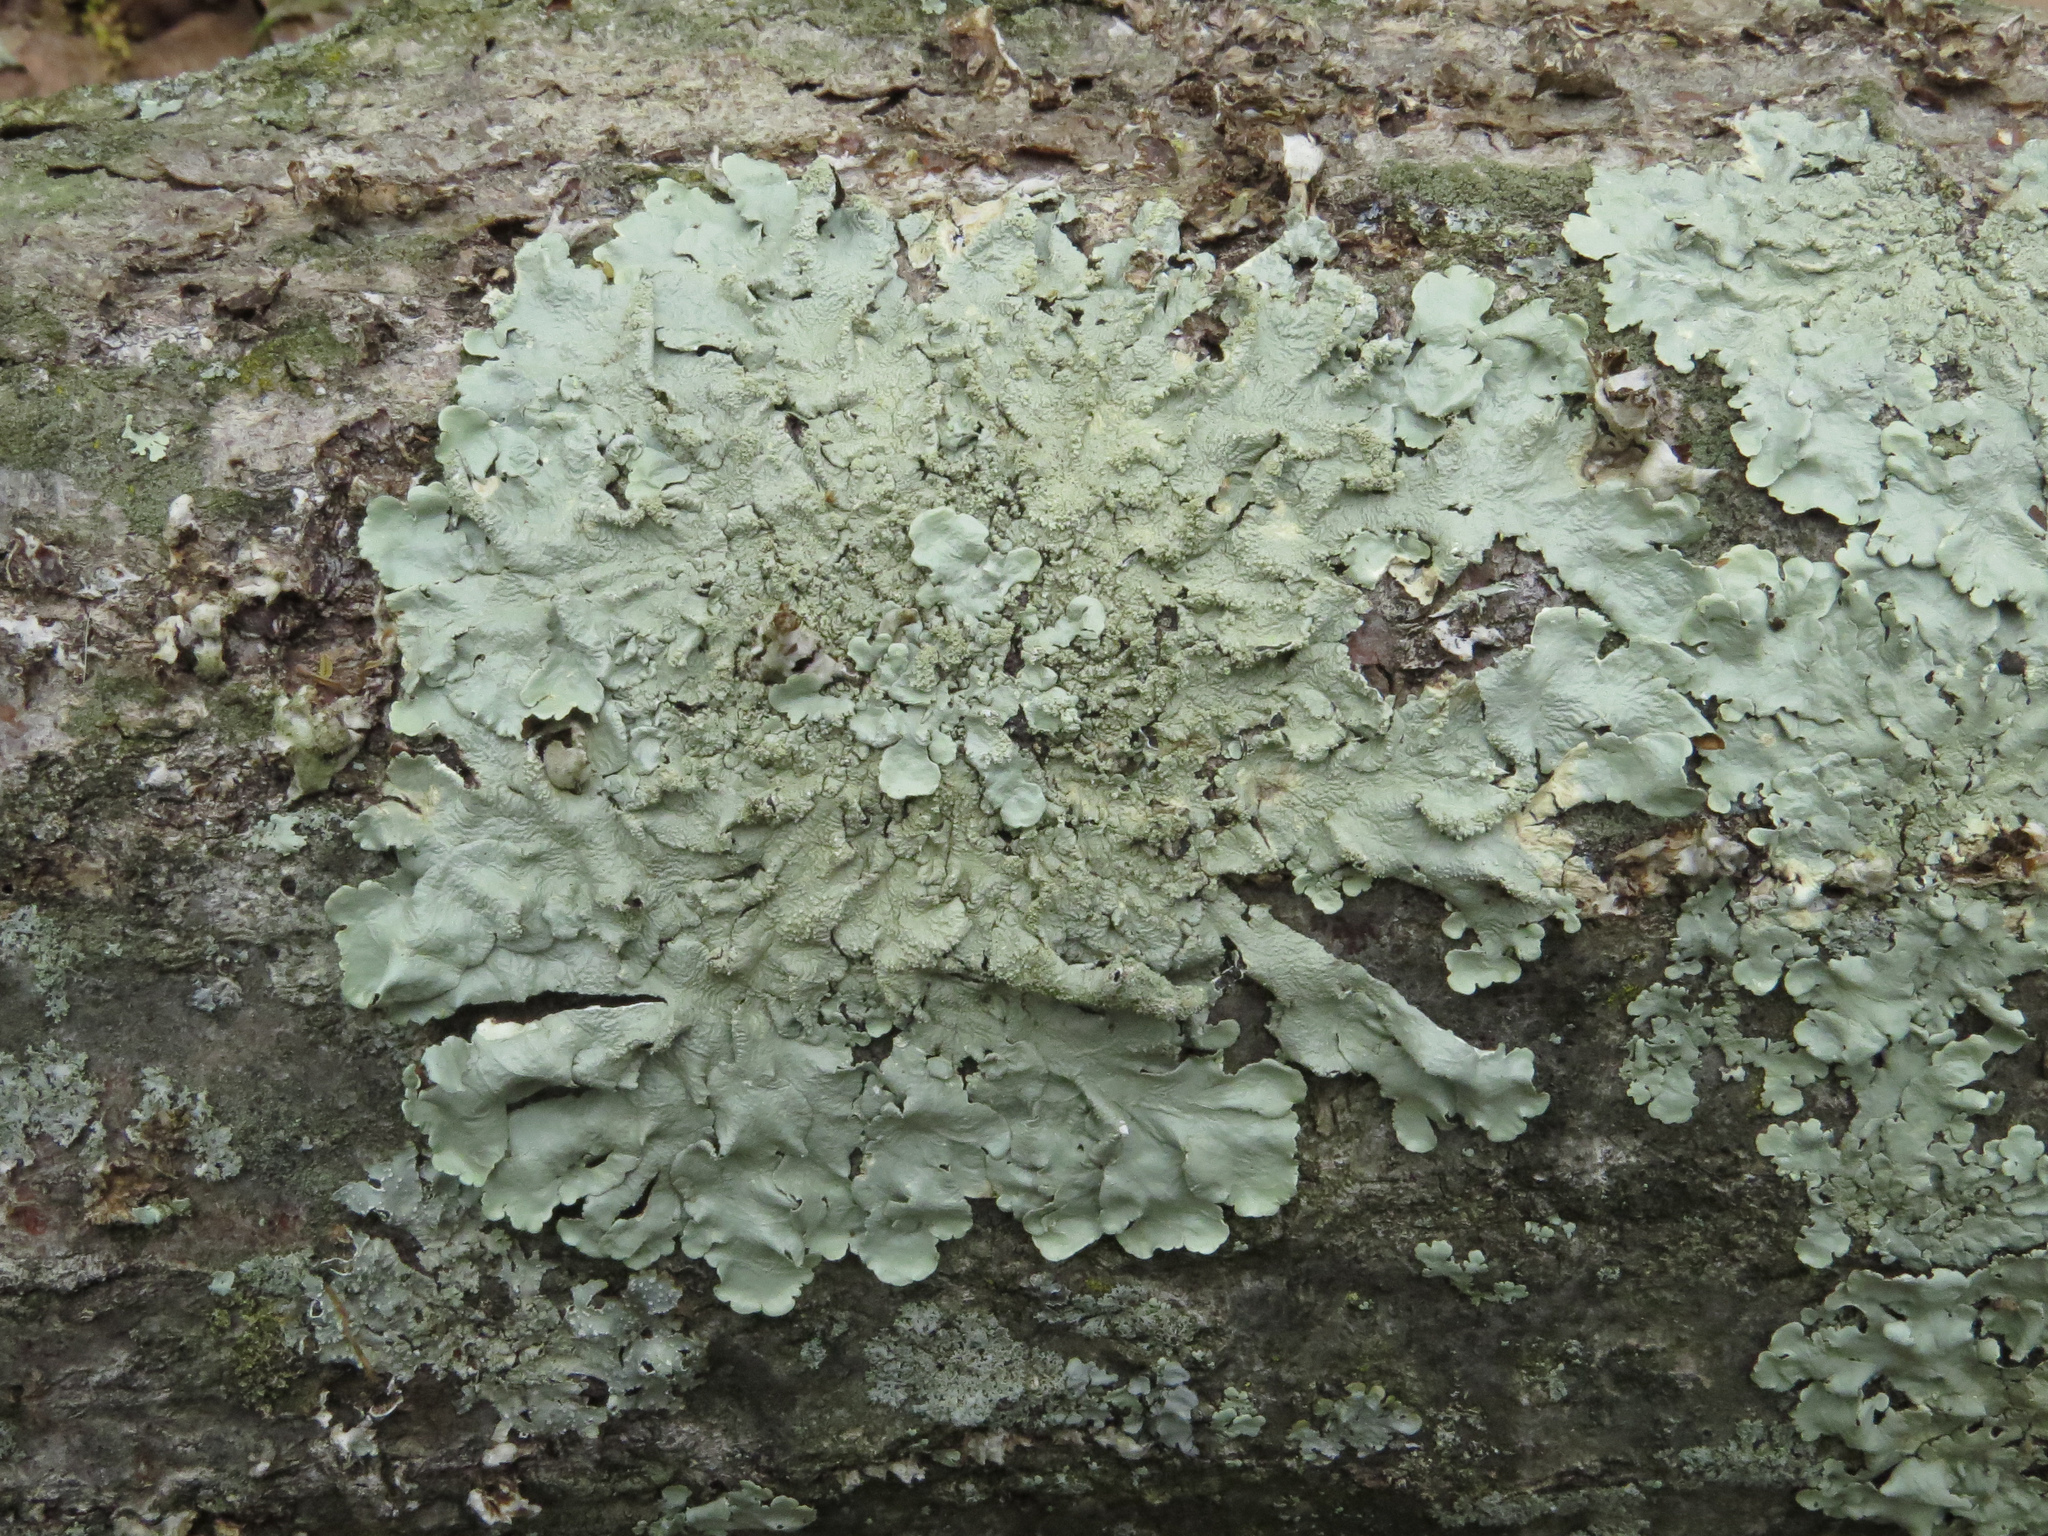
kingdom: Fungi
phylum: Ascomycota
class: Lecanoromycetes
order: Lecanorales
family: Parmeliaceae
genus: Flavoparmelia
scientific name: Flavoparmelia caperata
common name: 40-mile per hour lichen
